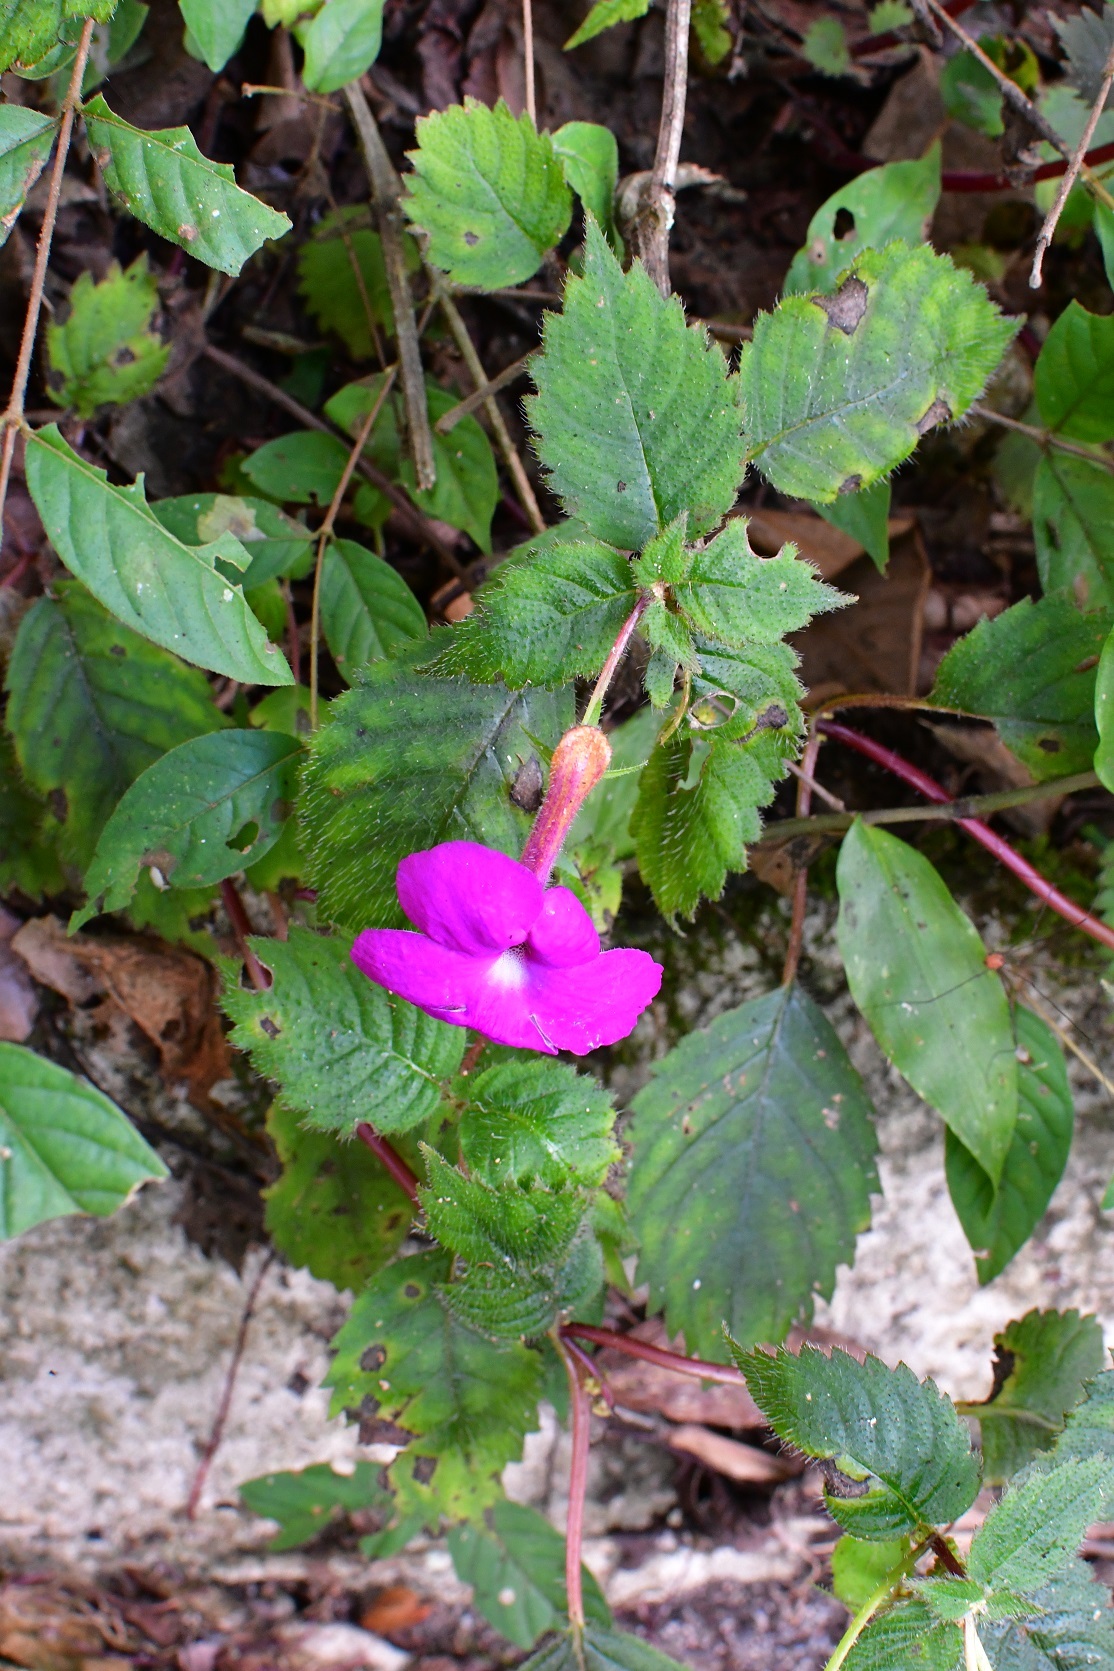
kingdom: Plantae
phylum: Tracheophyta
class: Magnoliopsida
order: Lamiales
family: Gesneriaceae
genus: Achimenes
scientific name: Achimenes grandiflora
